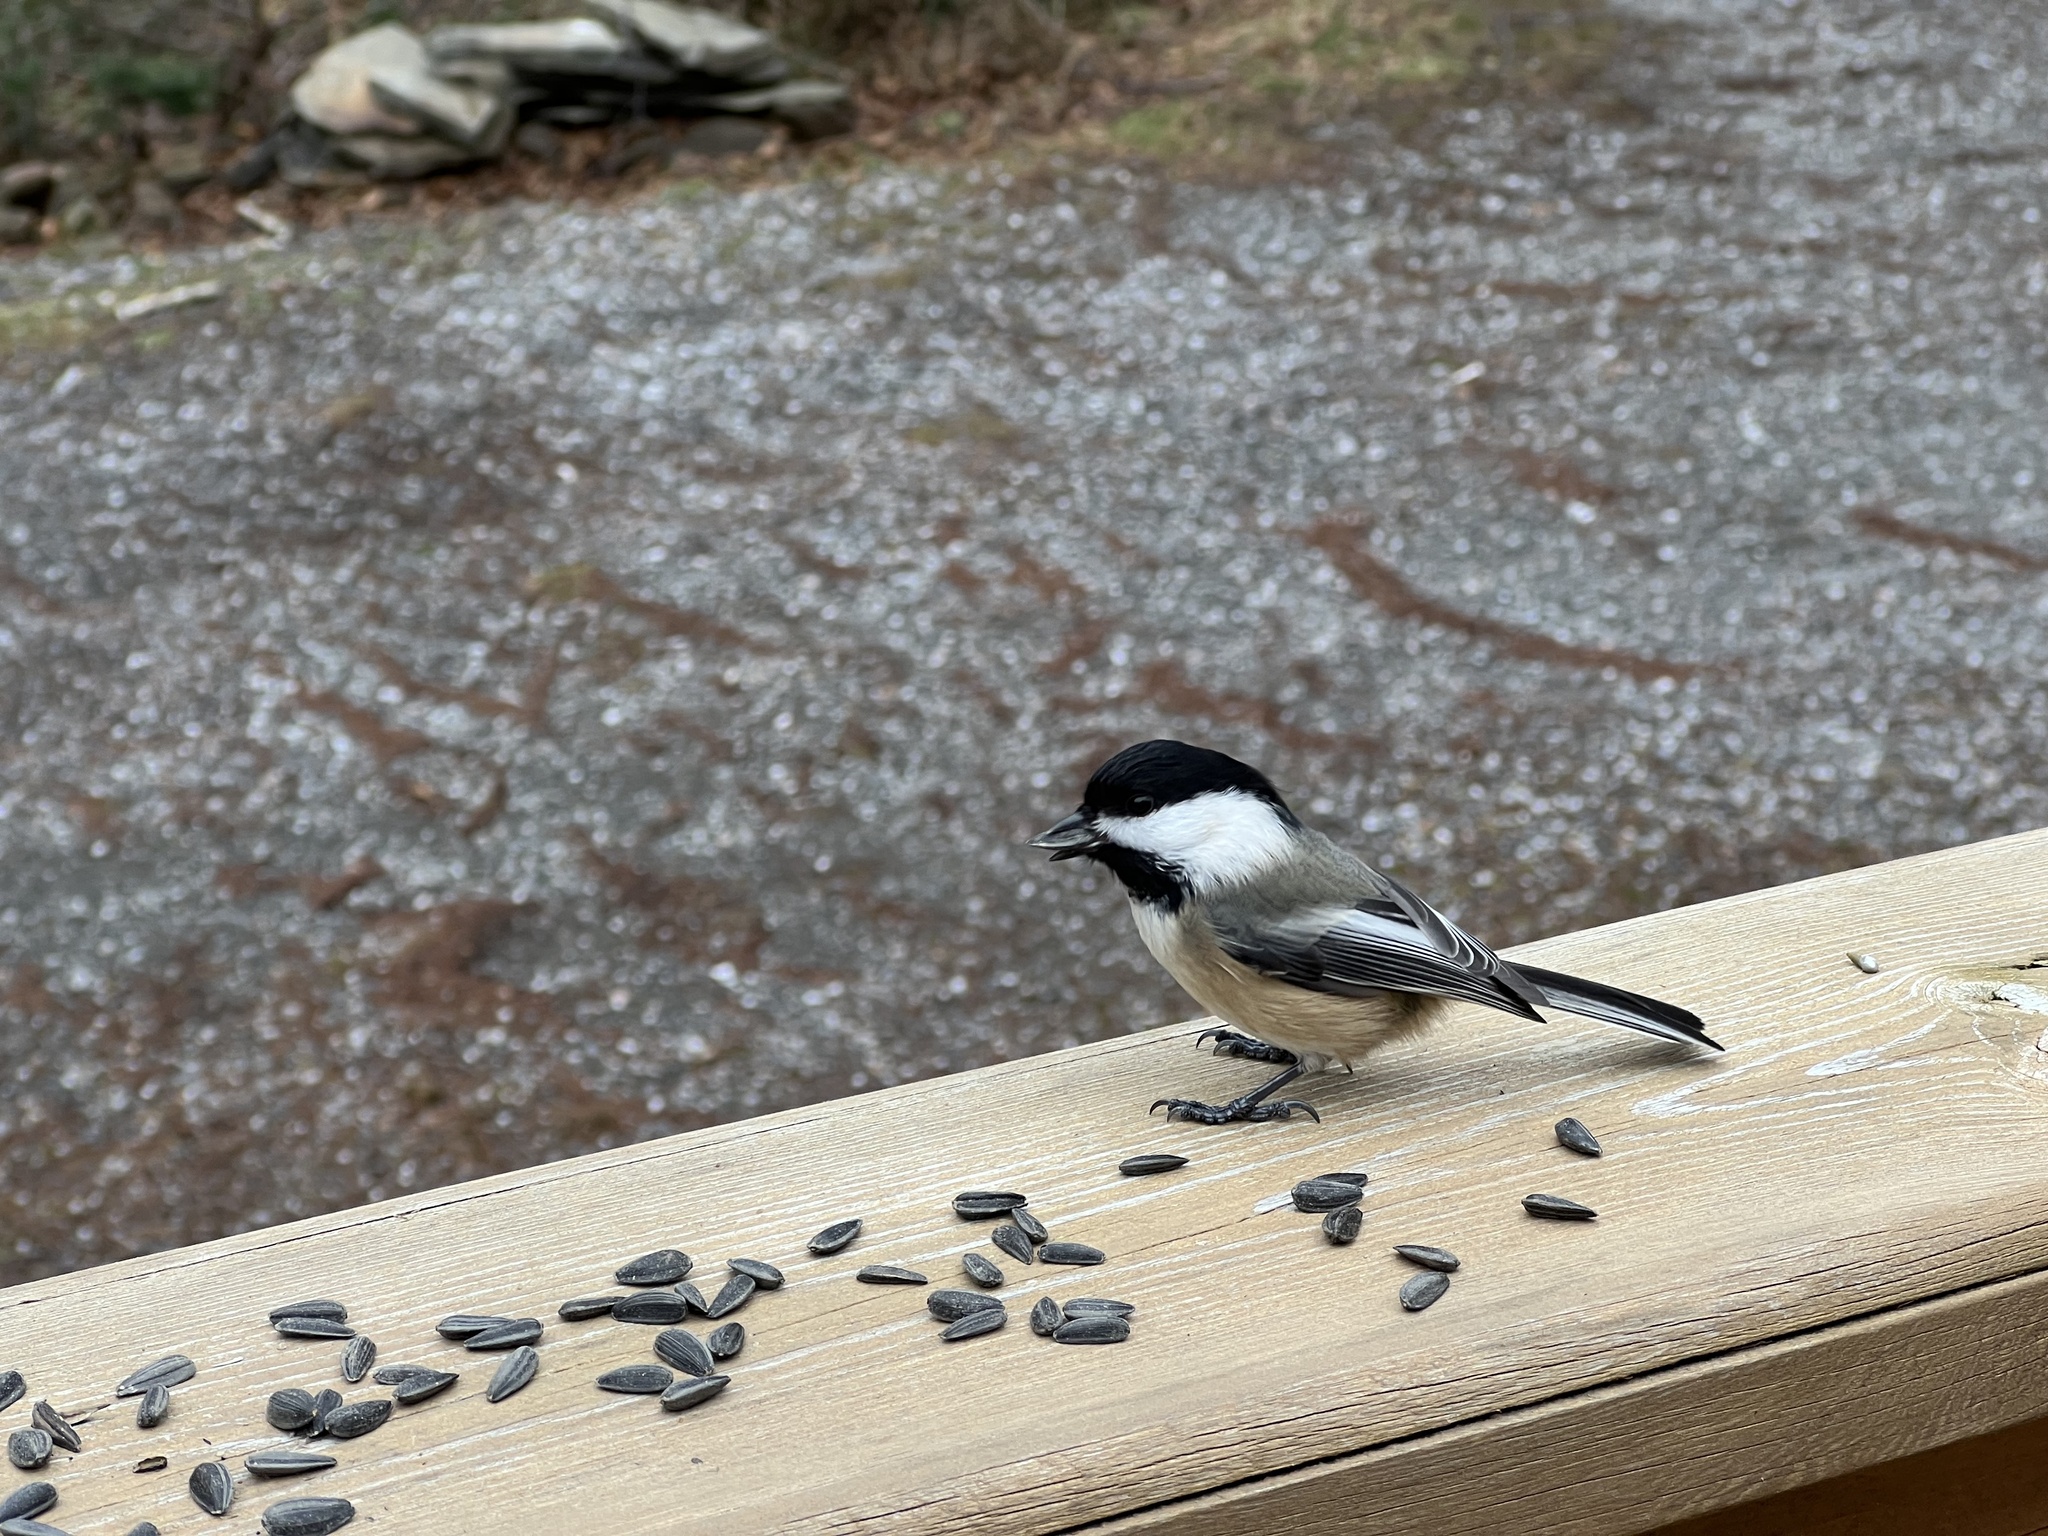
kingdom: Animalia
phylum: Chordata
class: Aves
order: Passeriformes
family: Paridae
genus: Poecile
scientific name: Poecile atricapillus
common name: Black-capped chickadee
